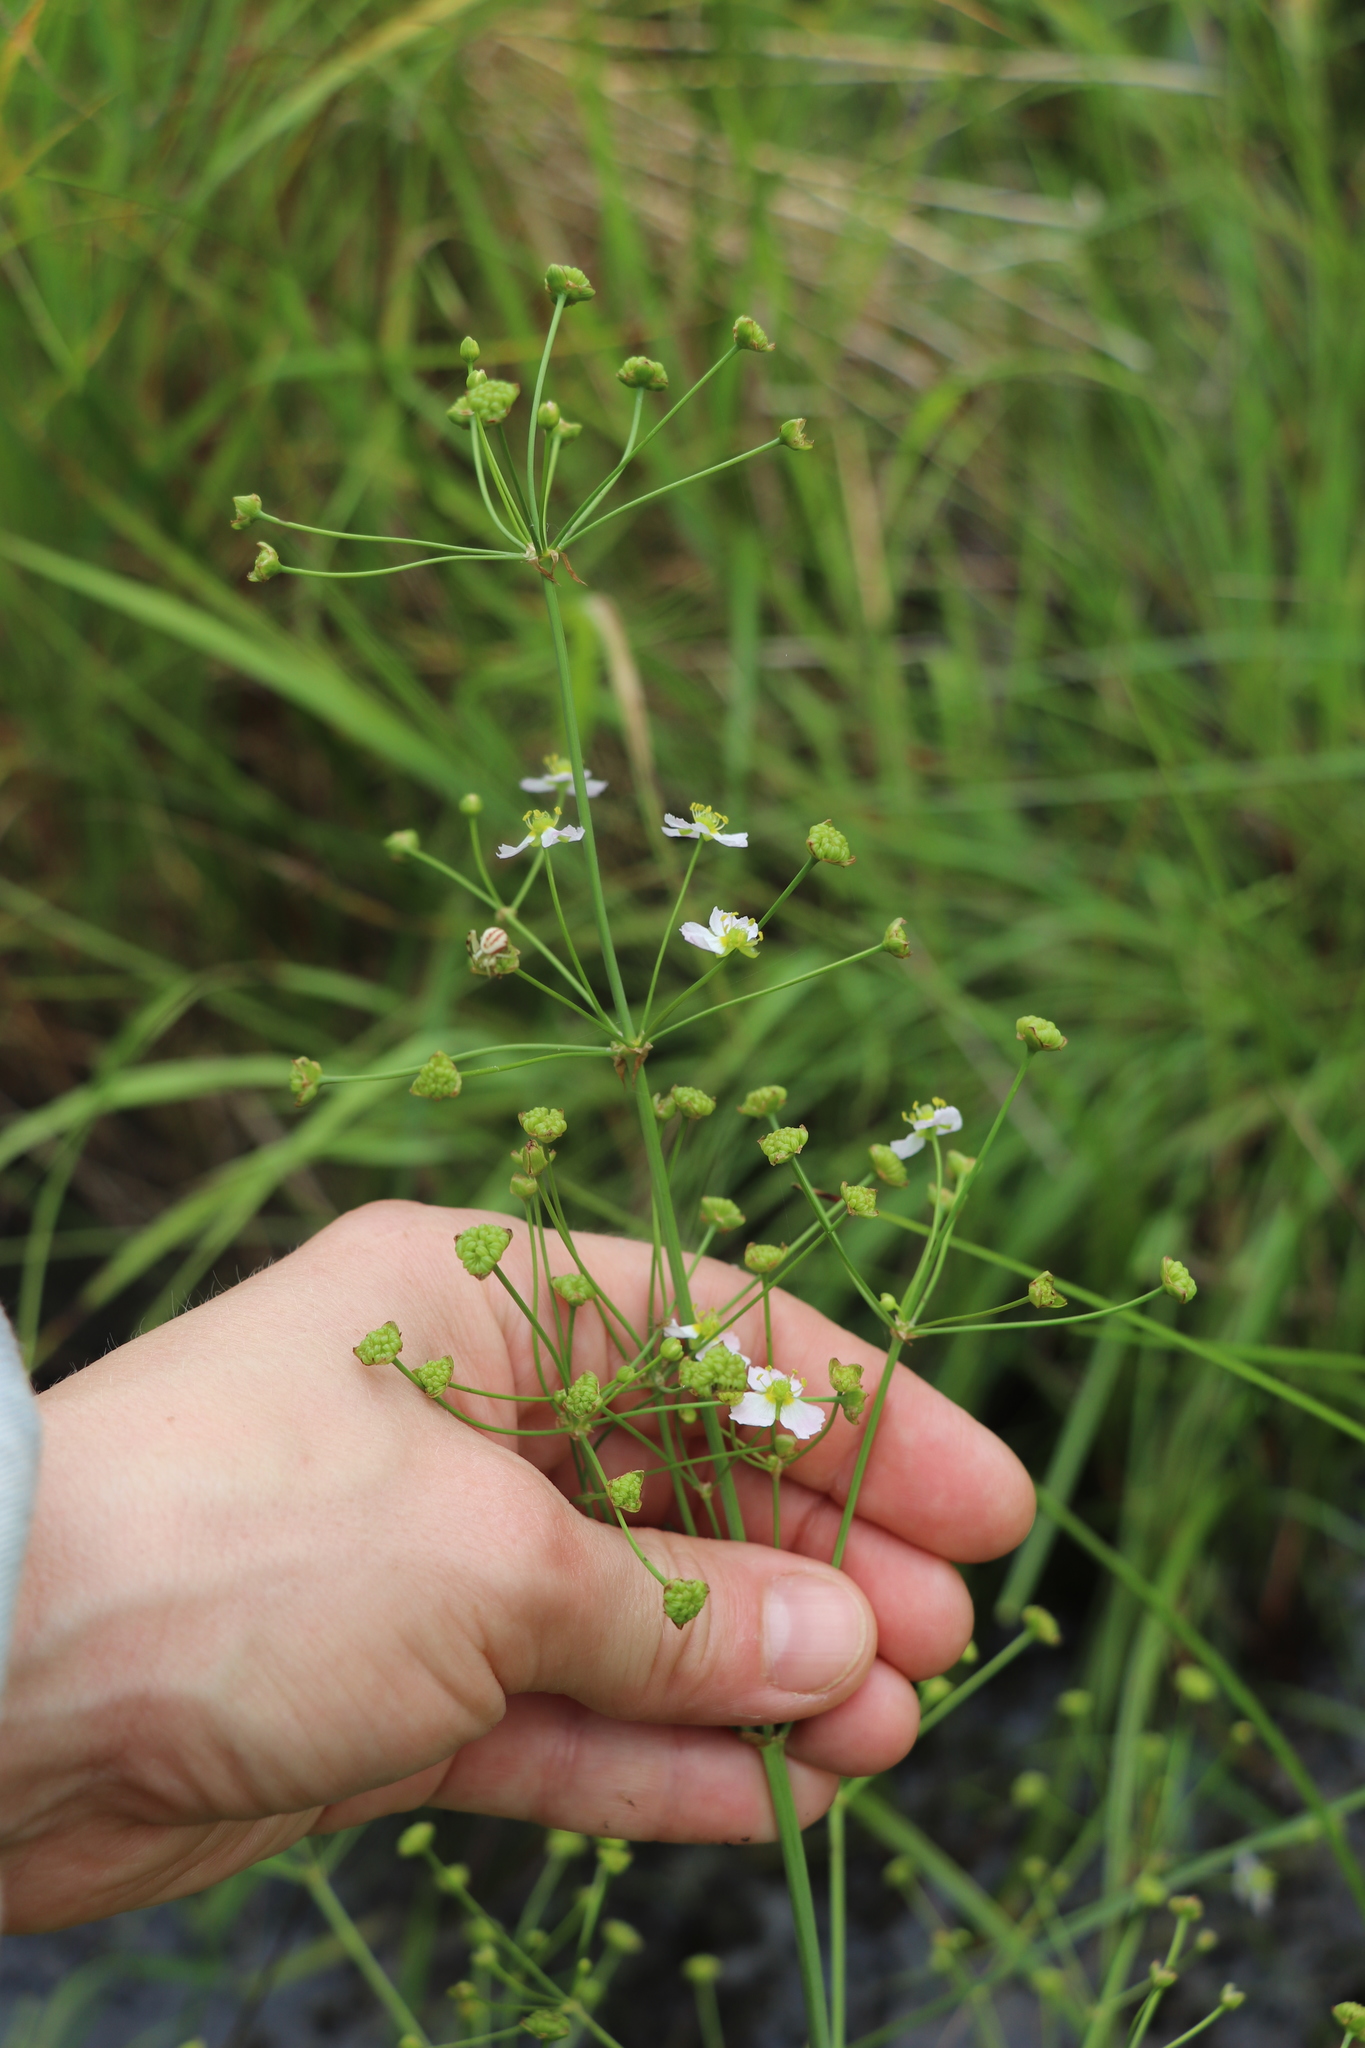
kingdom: Plantae
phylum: Tracheophyta
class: Liliopsida
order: Alismatales
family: Alismataceae
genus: Alisma
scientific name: Alisma plantago-aquatica
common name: Water-plantain
